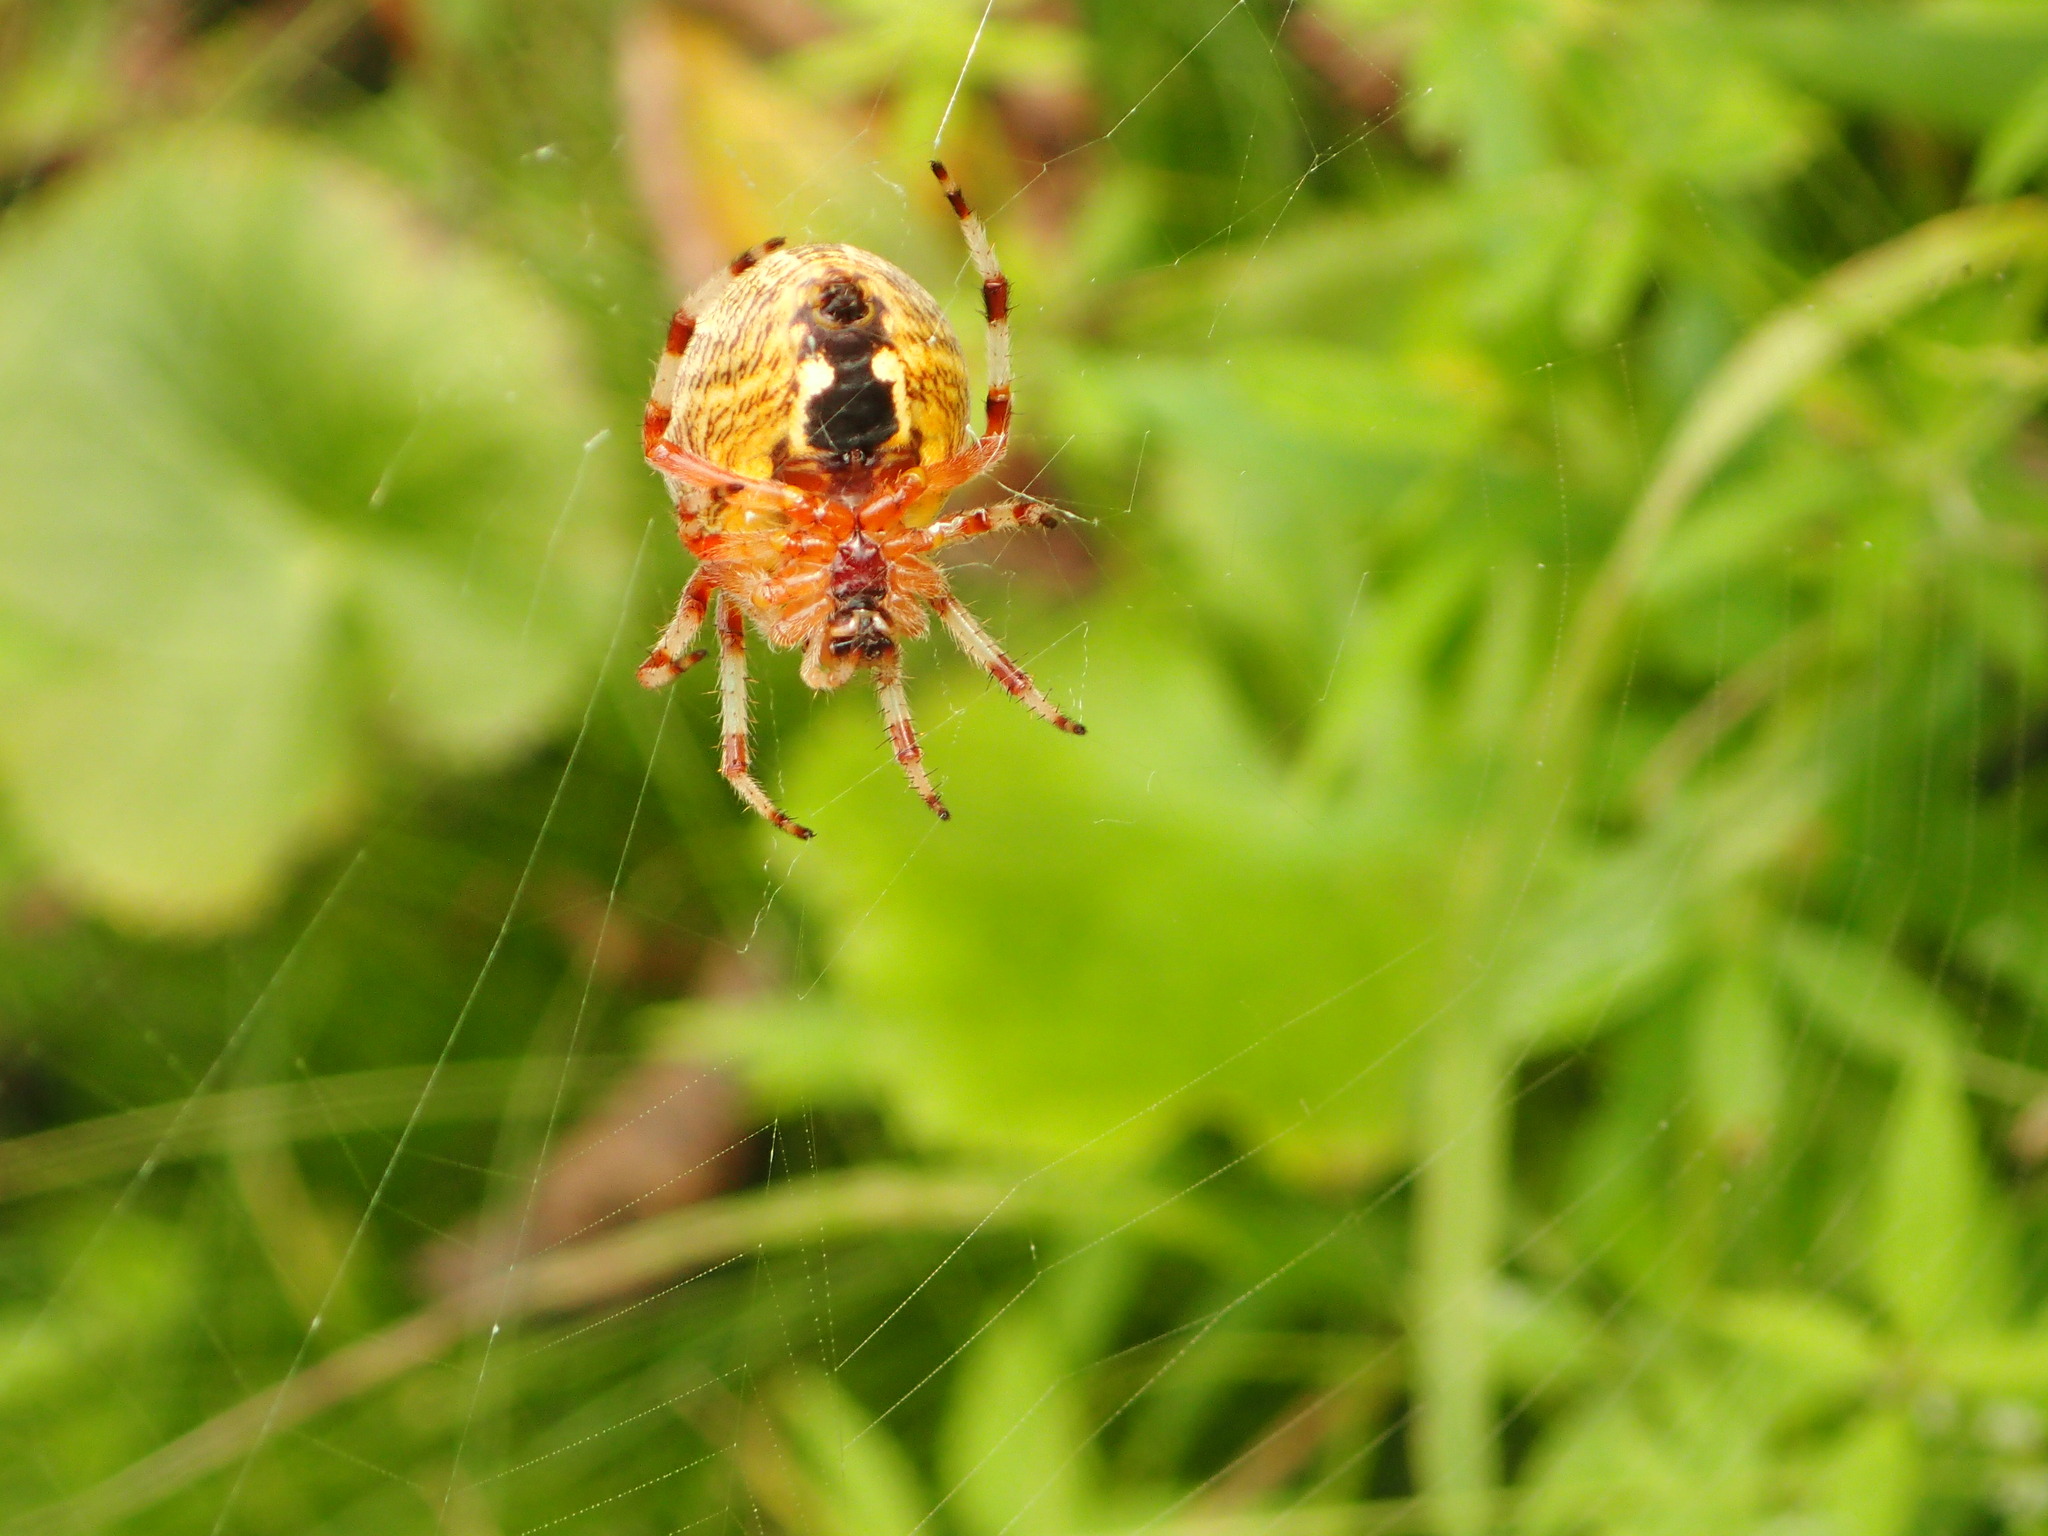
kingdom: Animalia
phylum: Arthropoda
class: Arachnida
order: Araneae
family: Araneidae
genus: Araneus
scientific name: Araneus marmoreus
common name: Marbled orbweaver
